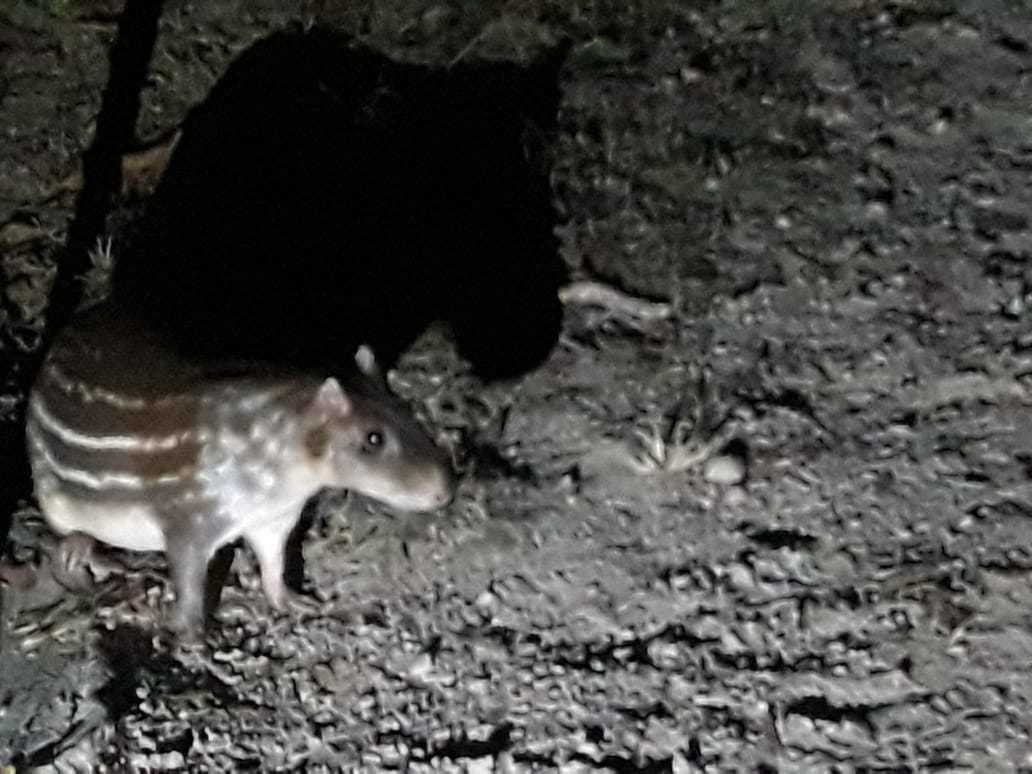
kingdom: Animalia
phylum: Chordata
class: Mammalia
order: Rodentia
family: Cuniculidae
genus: Cuniculus
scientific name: Cuniculus paca
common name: Lowland paca
